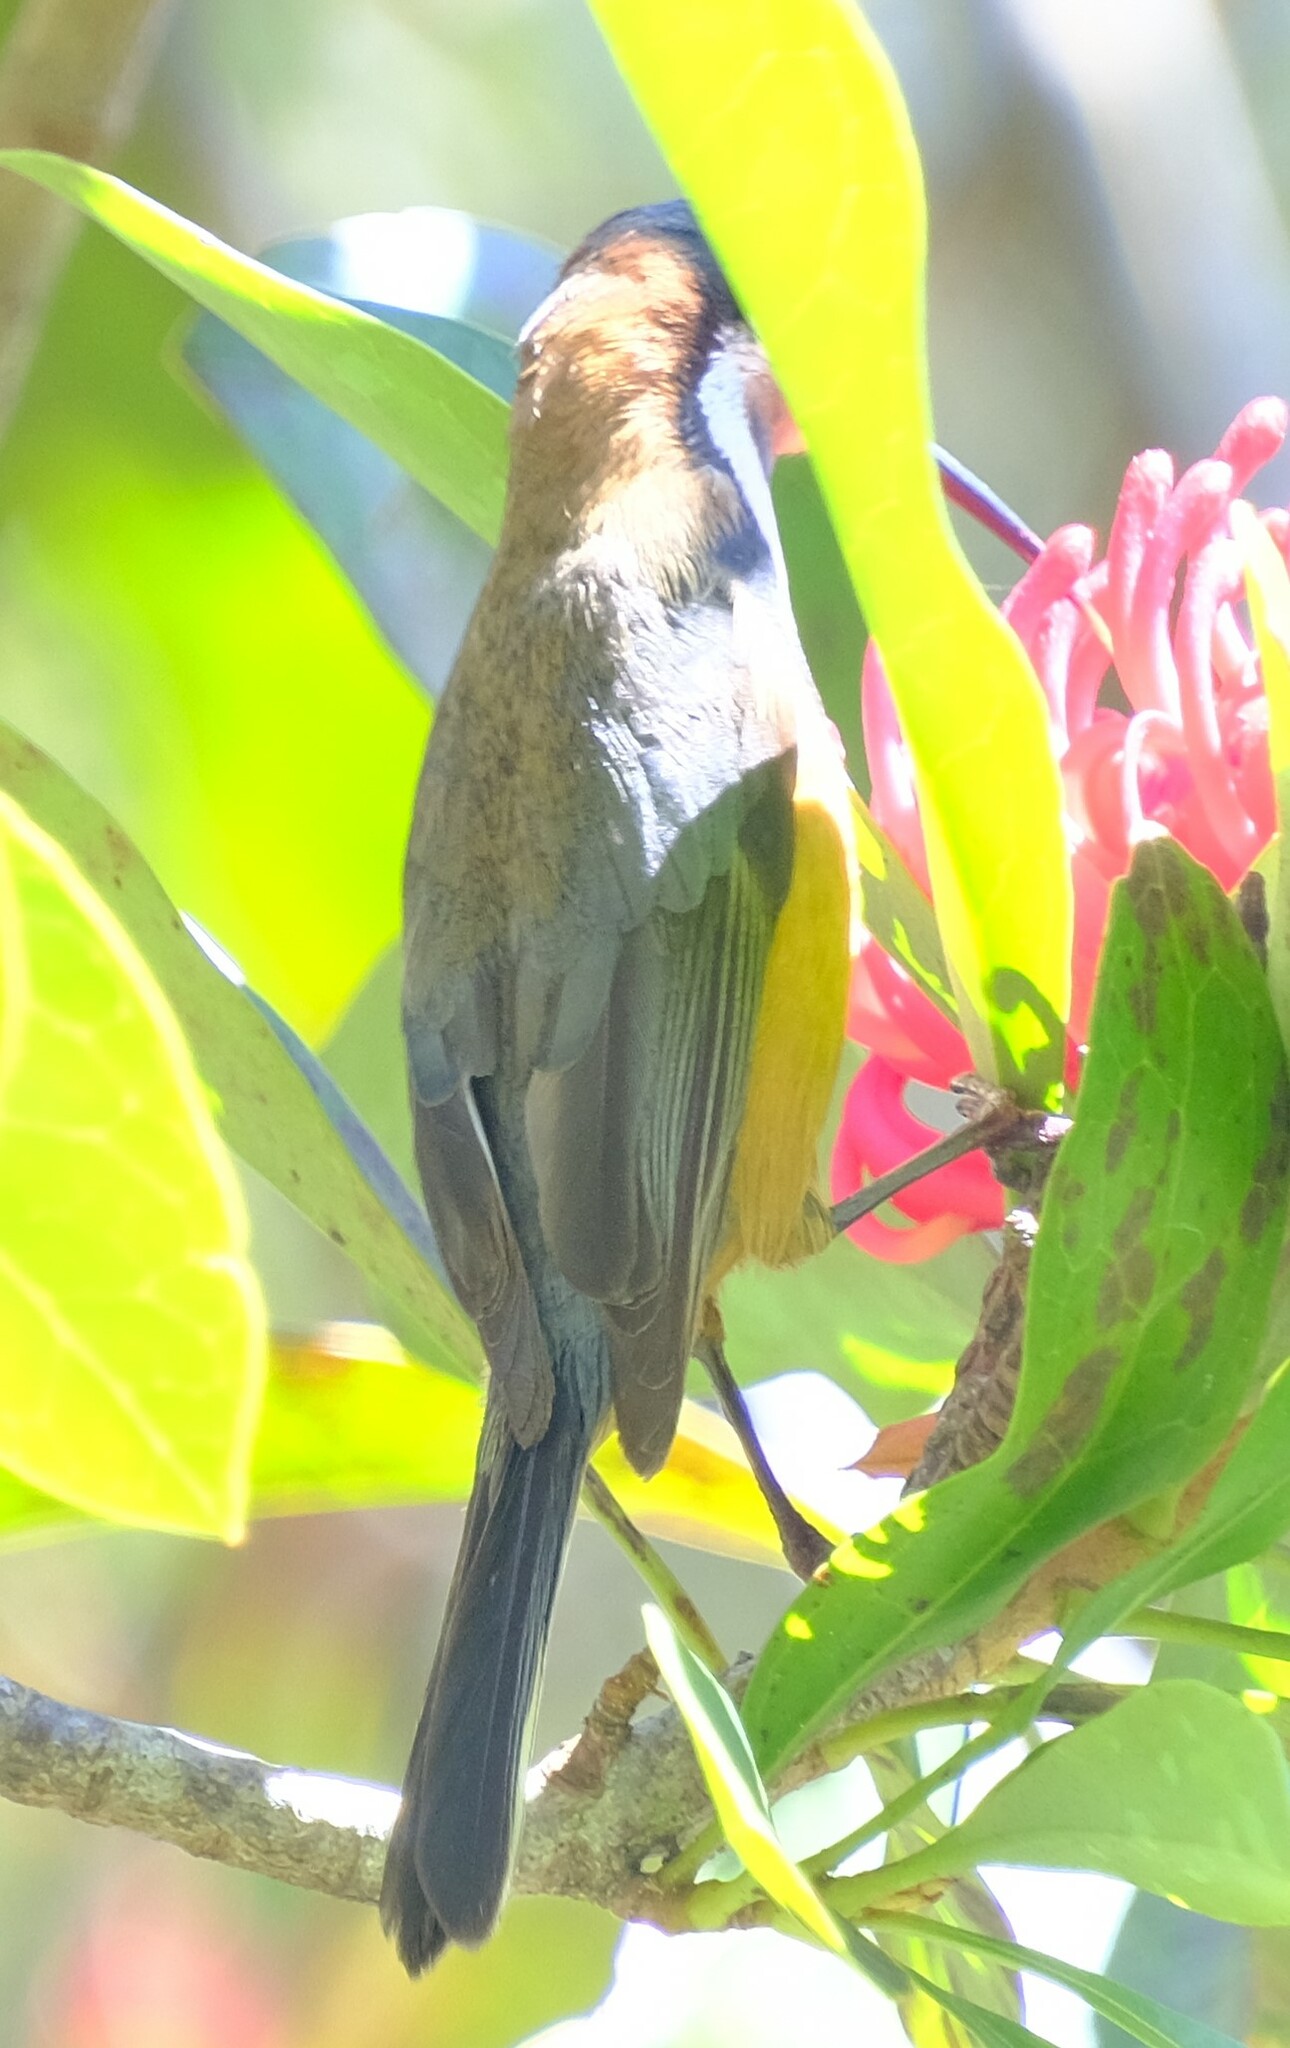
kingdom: Animalia
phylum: Chordata
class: Aves
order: Passeriformes
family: Meliphagidae
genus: Acanthorhynchus
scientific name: Acanthorhynchus tenuirostris
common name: Eastern spinebill
